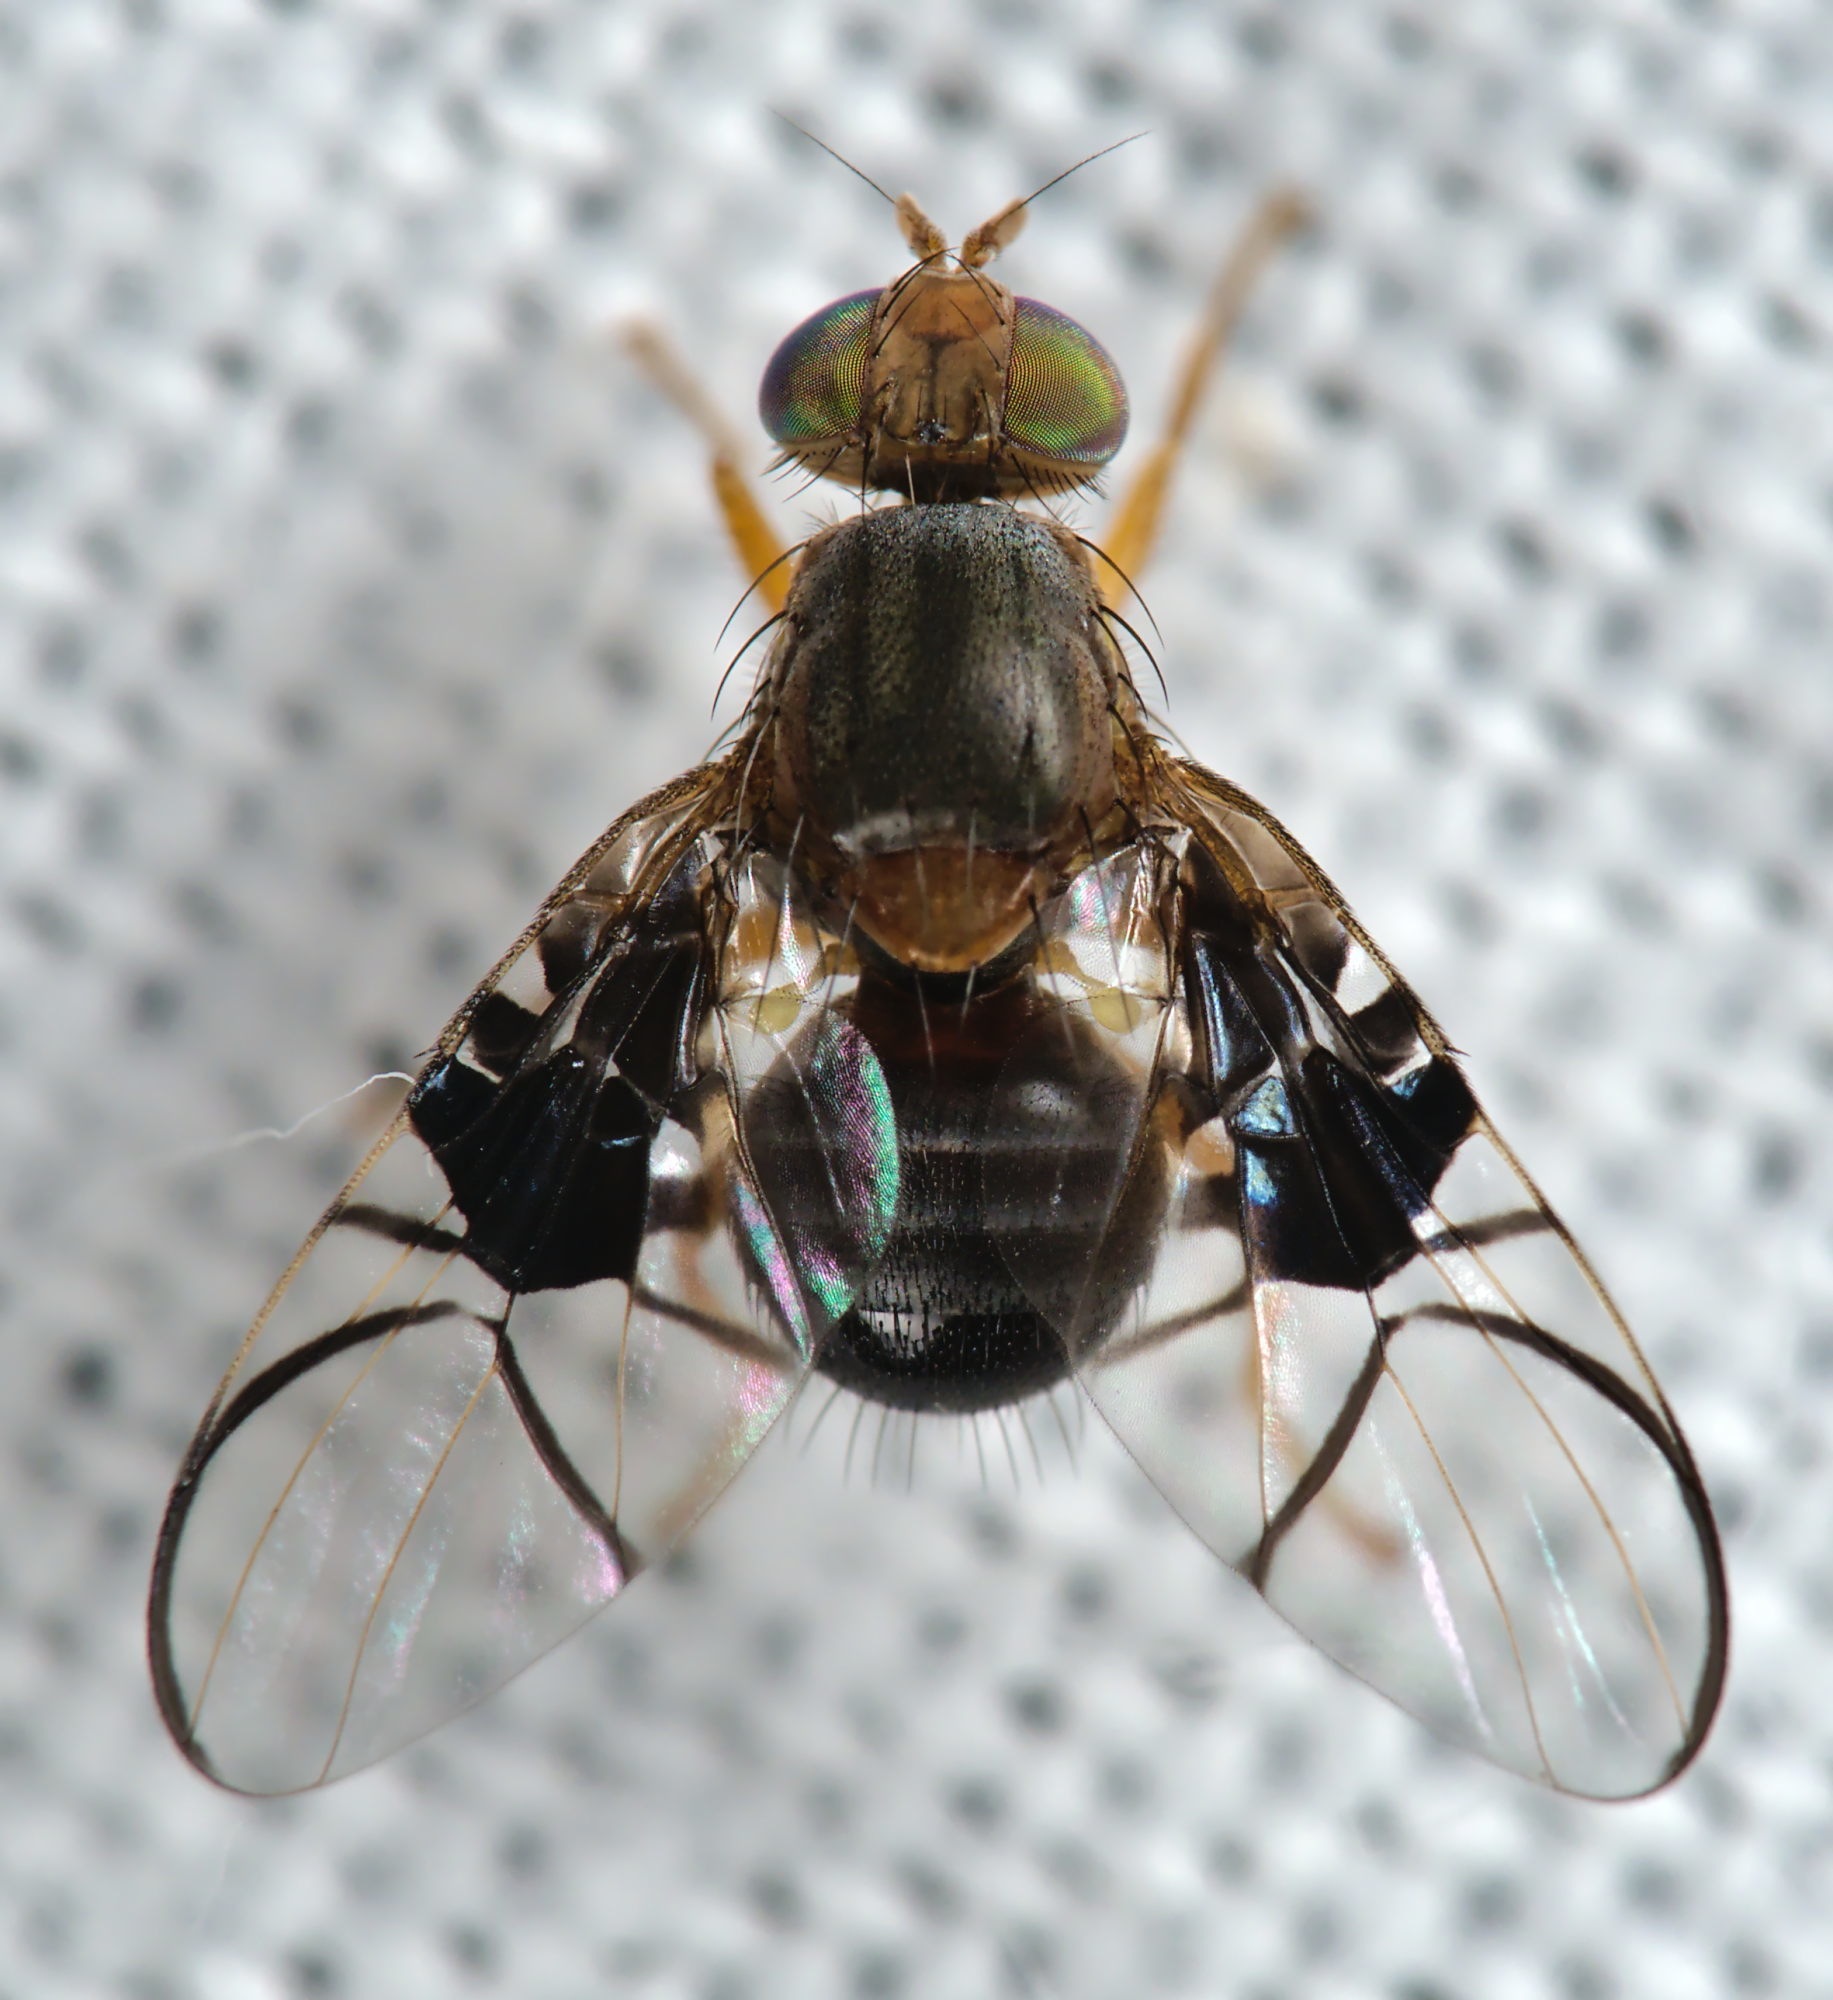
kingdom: Animalia
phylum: Arthropoda
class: Insecta
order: Diptera
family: Tephritidae
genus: Anomoia
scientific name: Anomoia purmunda
